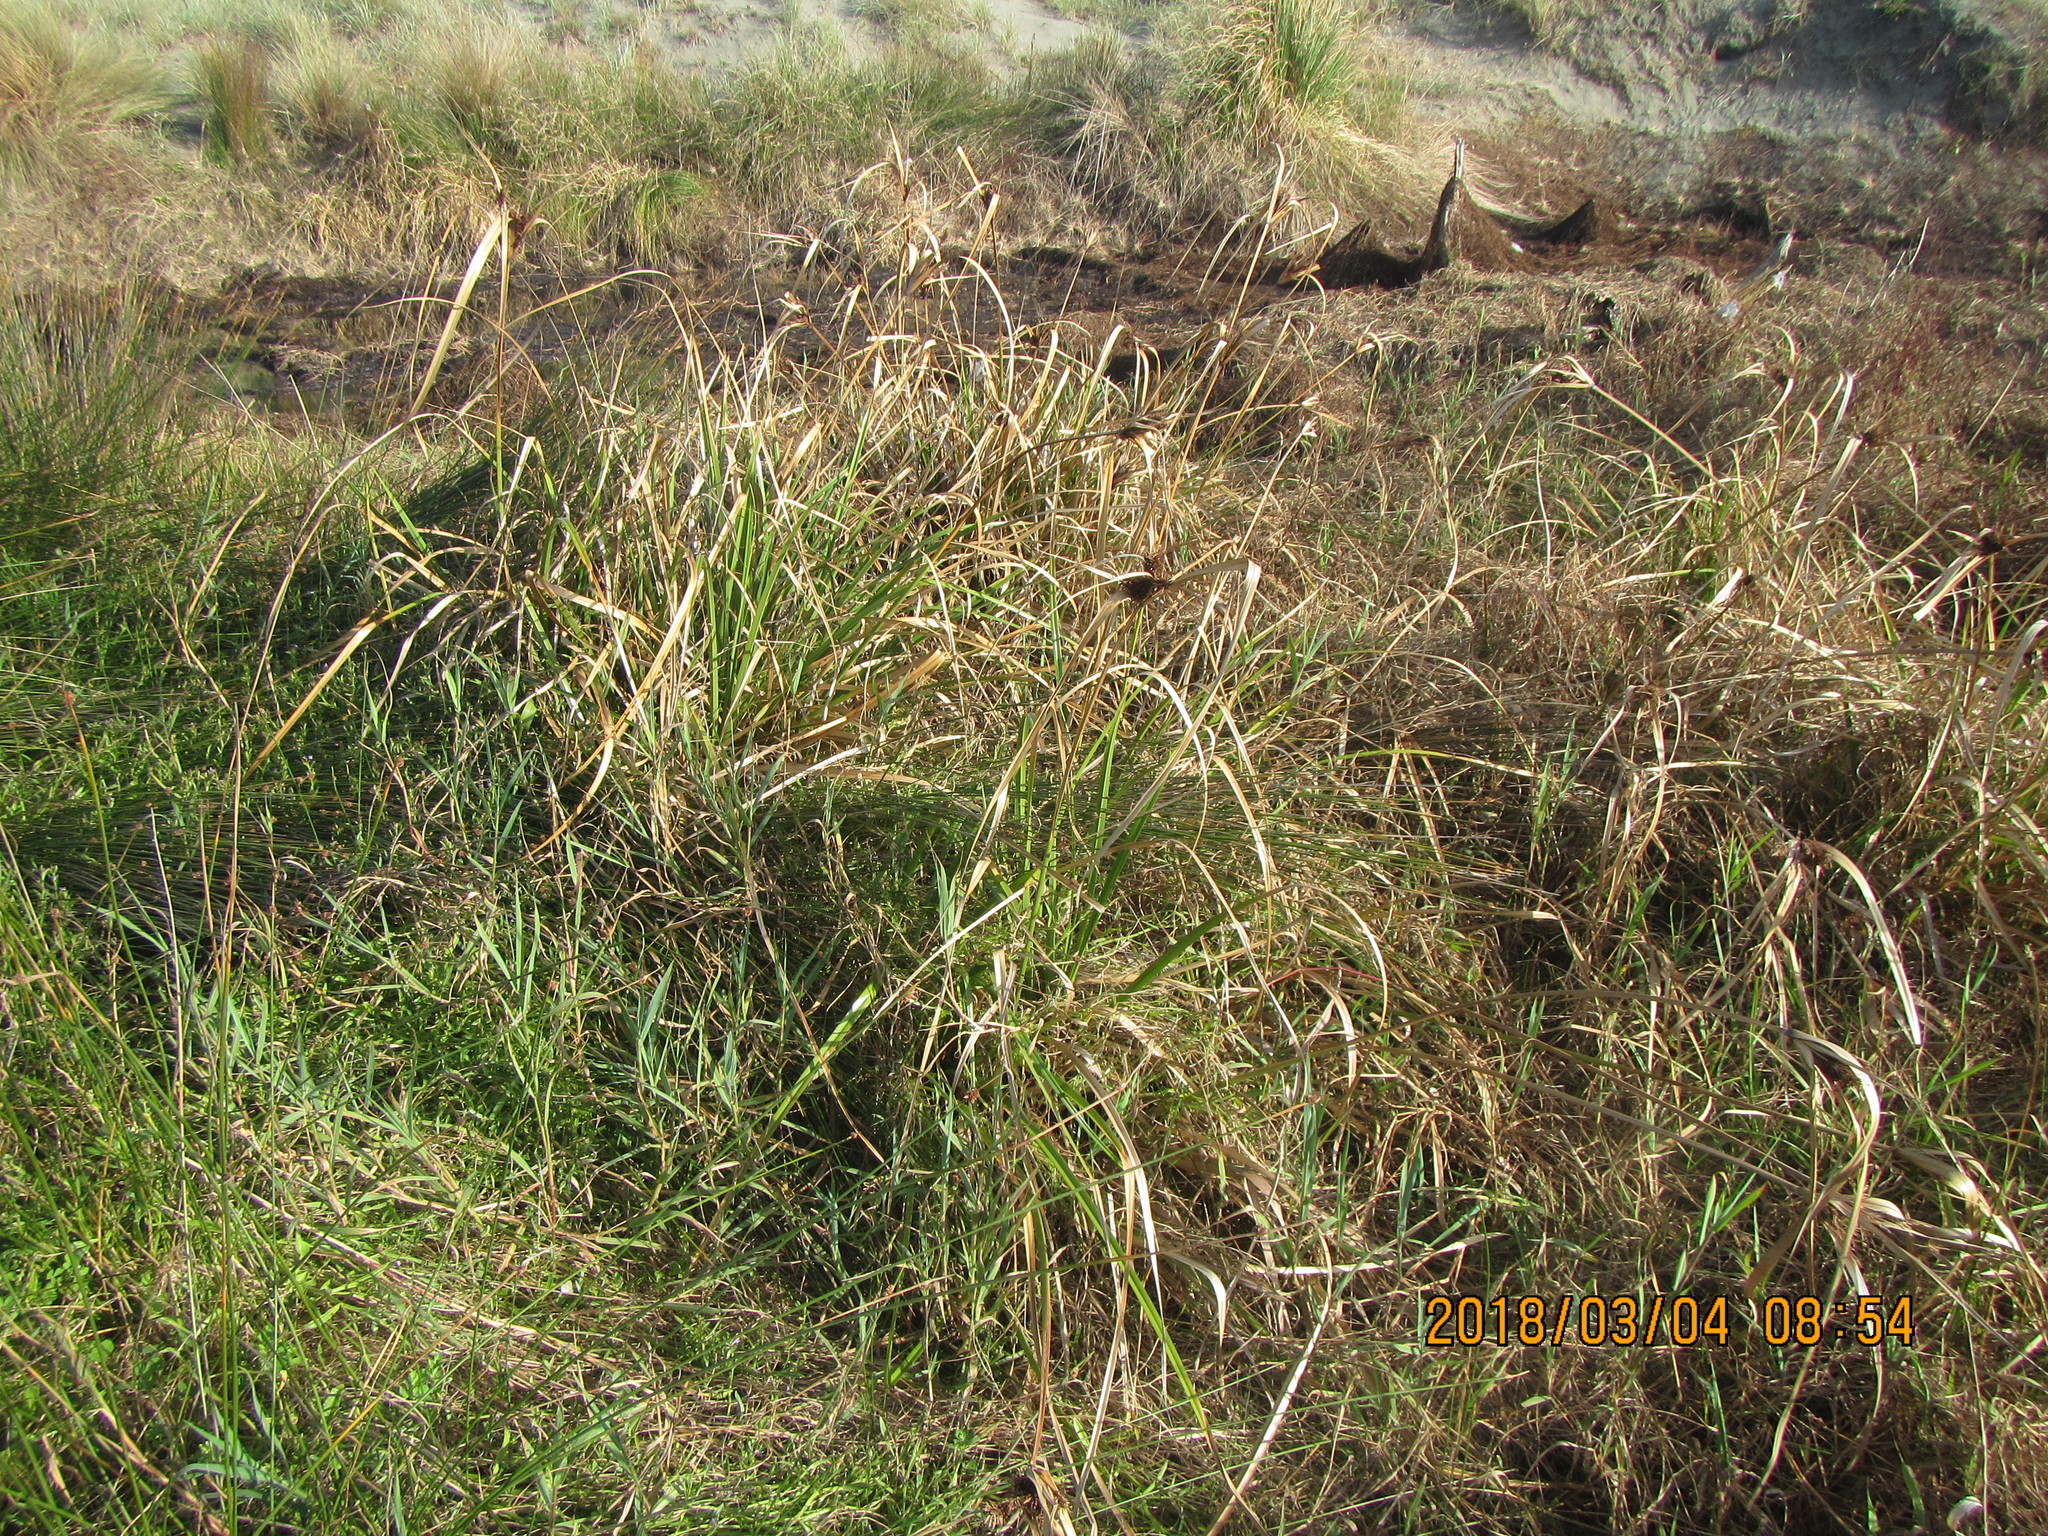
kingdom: Plantae
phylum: Tracheophyta
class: Liliopsida
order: Poales
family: Cyperaceae
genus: Cyperus
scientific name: Cyperus ustulatus
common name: Giant umbrella-sedge
